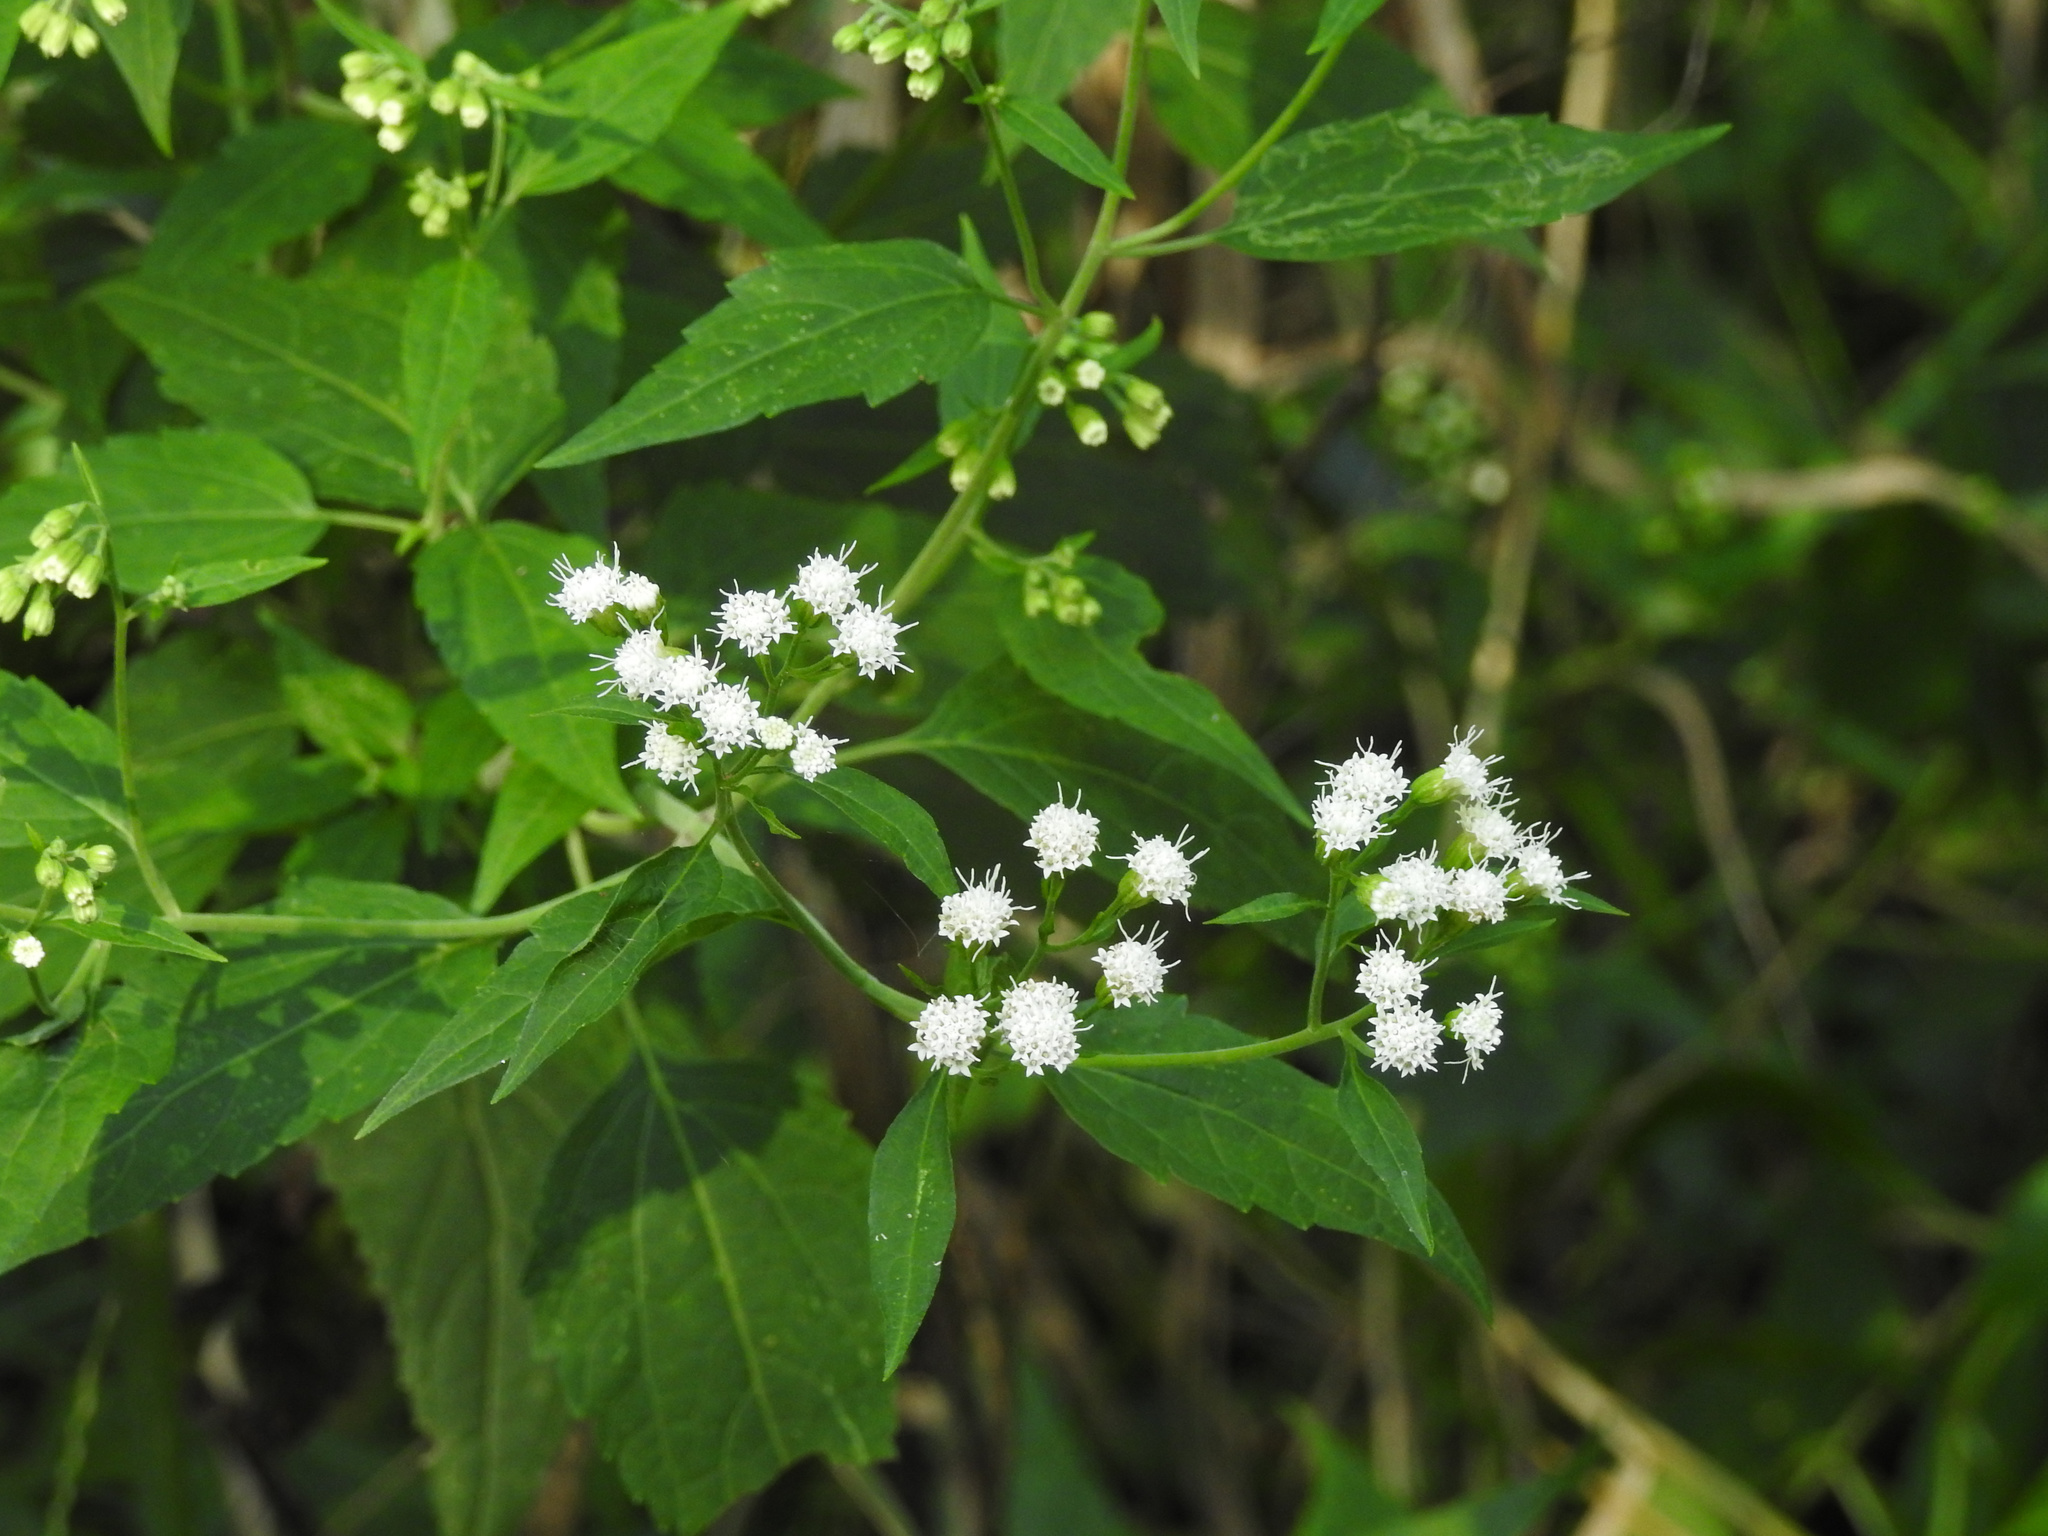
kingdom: Plantae
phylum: Tracheophyta
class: Magnoliopsida
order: Asterales
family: Asteraceae
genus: Ageratina
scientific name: Ageratina altissima
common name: White snakeroot
